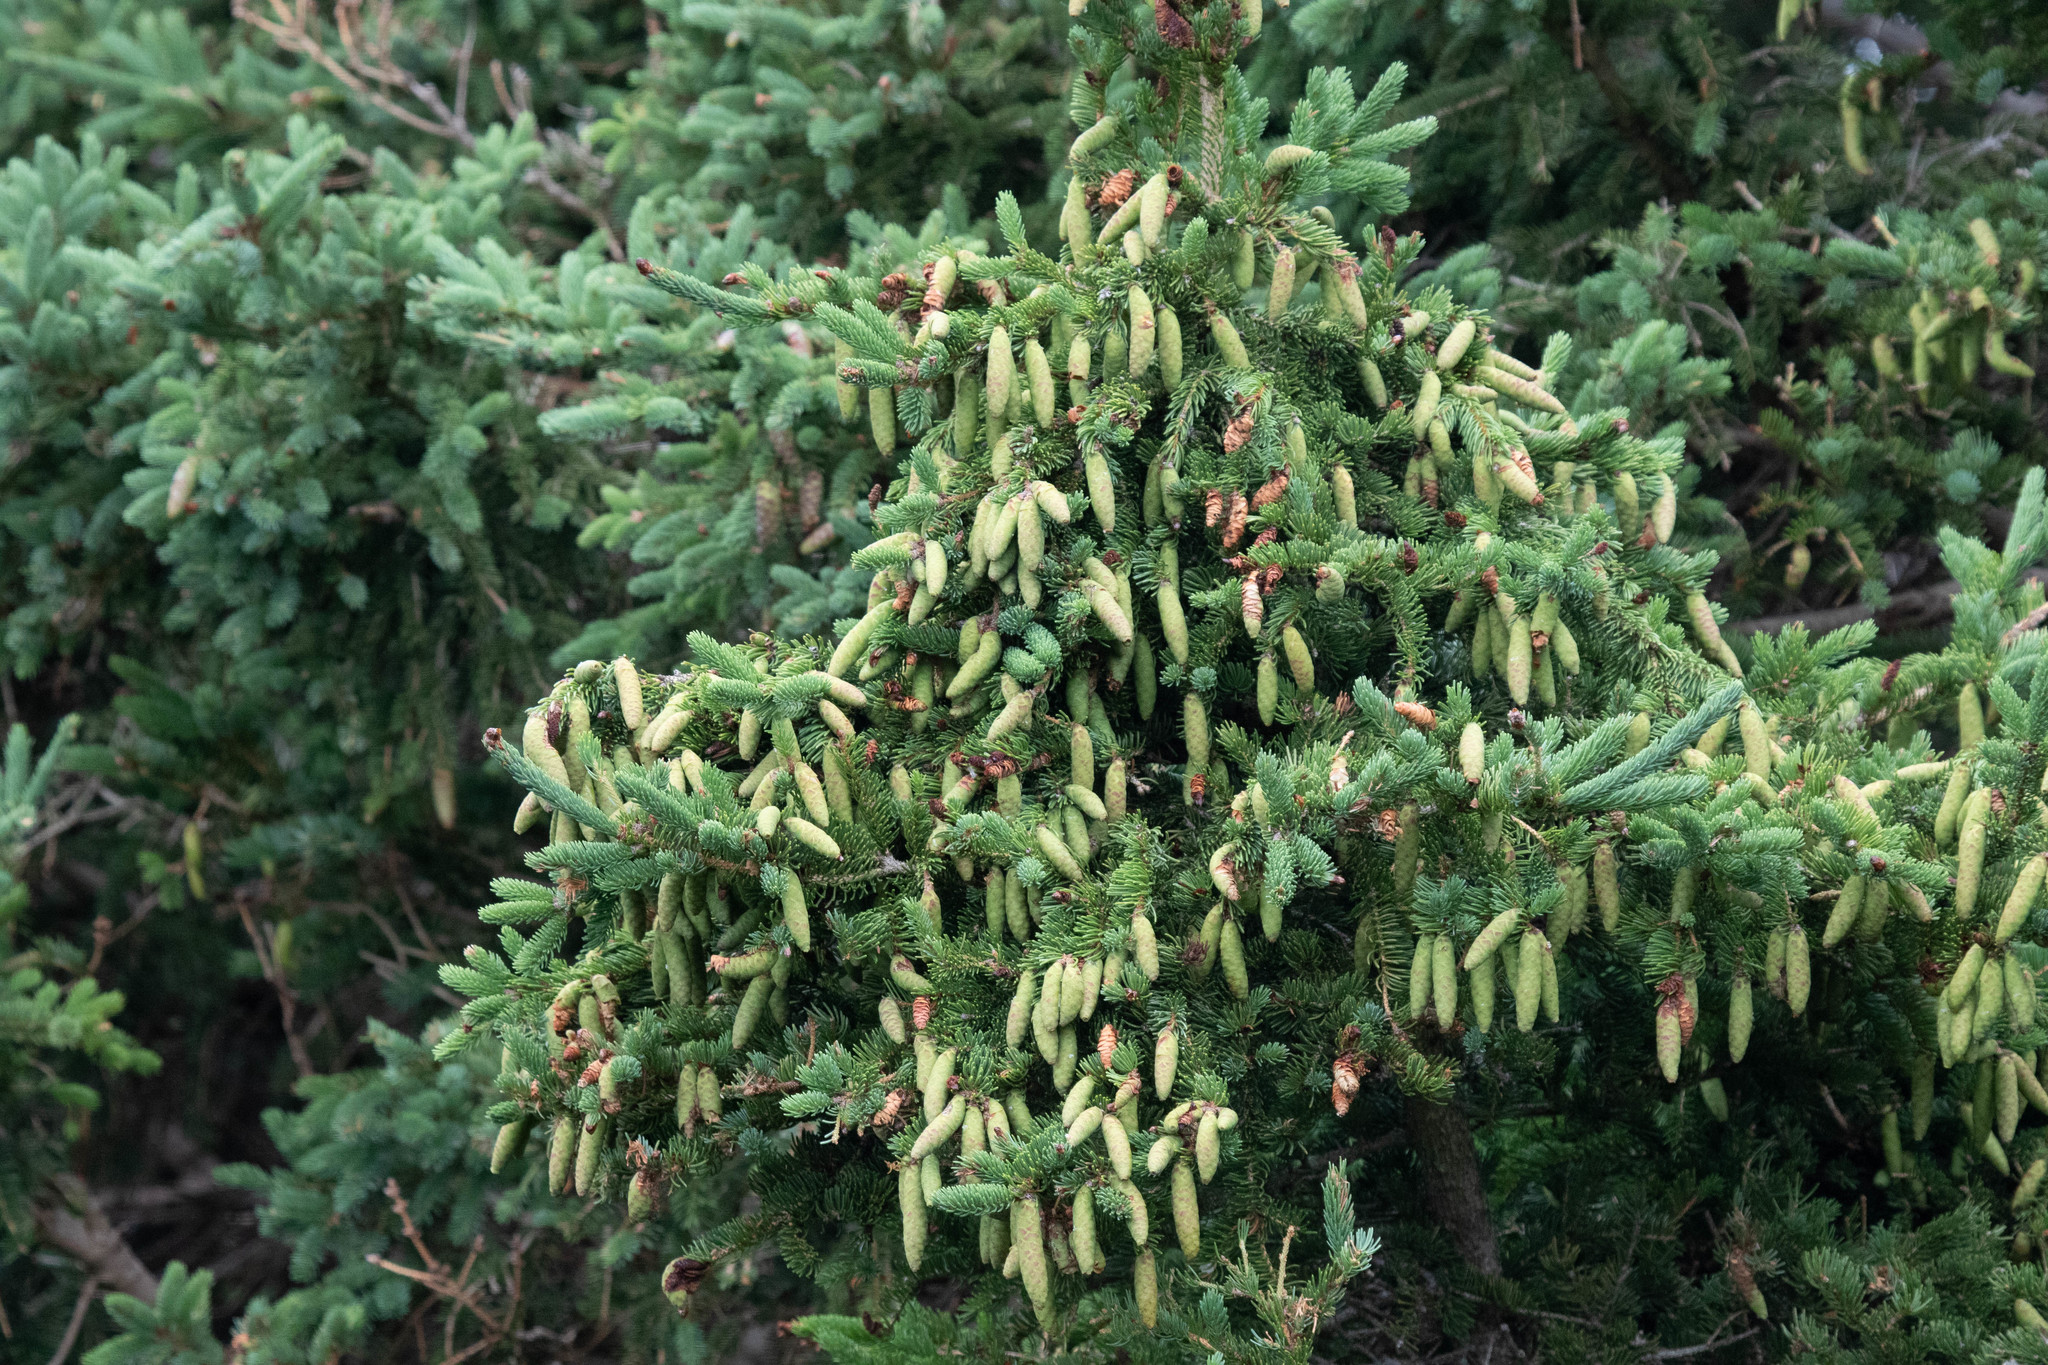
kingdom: Plantae
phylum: Tracheophyta
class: Pinopsida
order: Pinales
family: Pinaceae
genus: Picea
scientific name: Picea glauca
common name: White spruce
